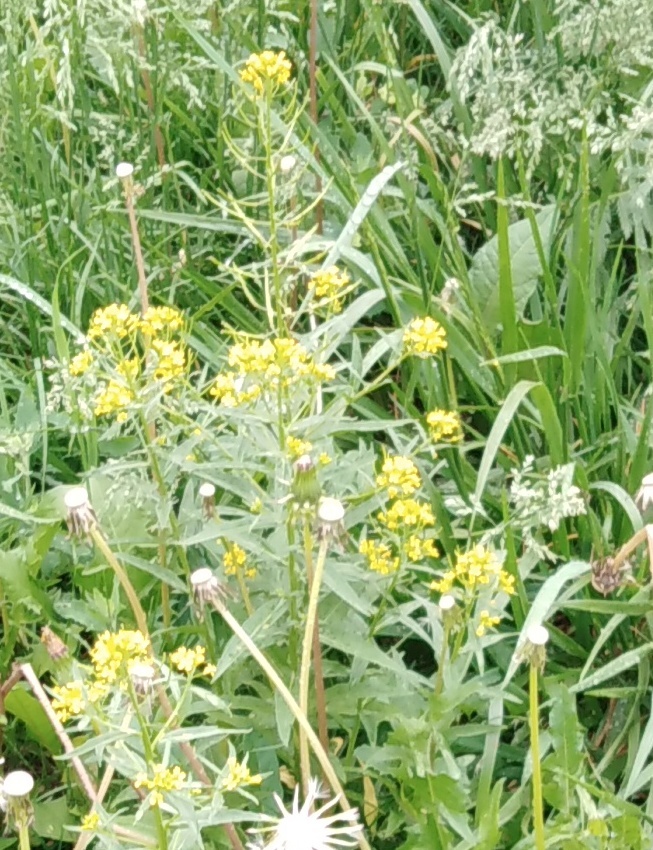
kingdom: Plantae
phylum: Tracheophyta
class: Magnoliopsida
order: Brassicales
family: Brassicaceae
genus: Erysimum
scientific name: Erysimum cheiranthoides
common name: Treacle mustard
